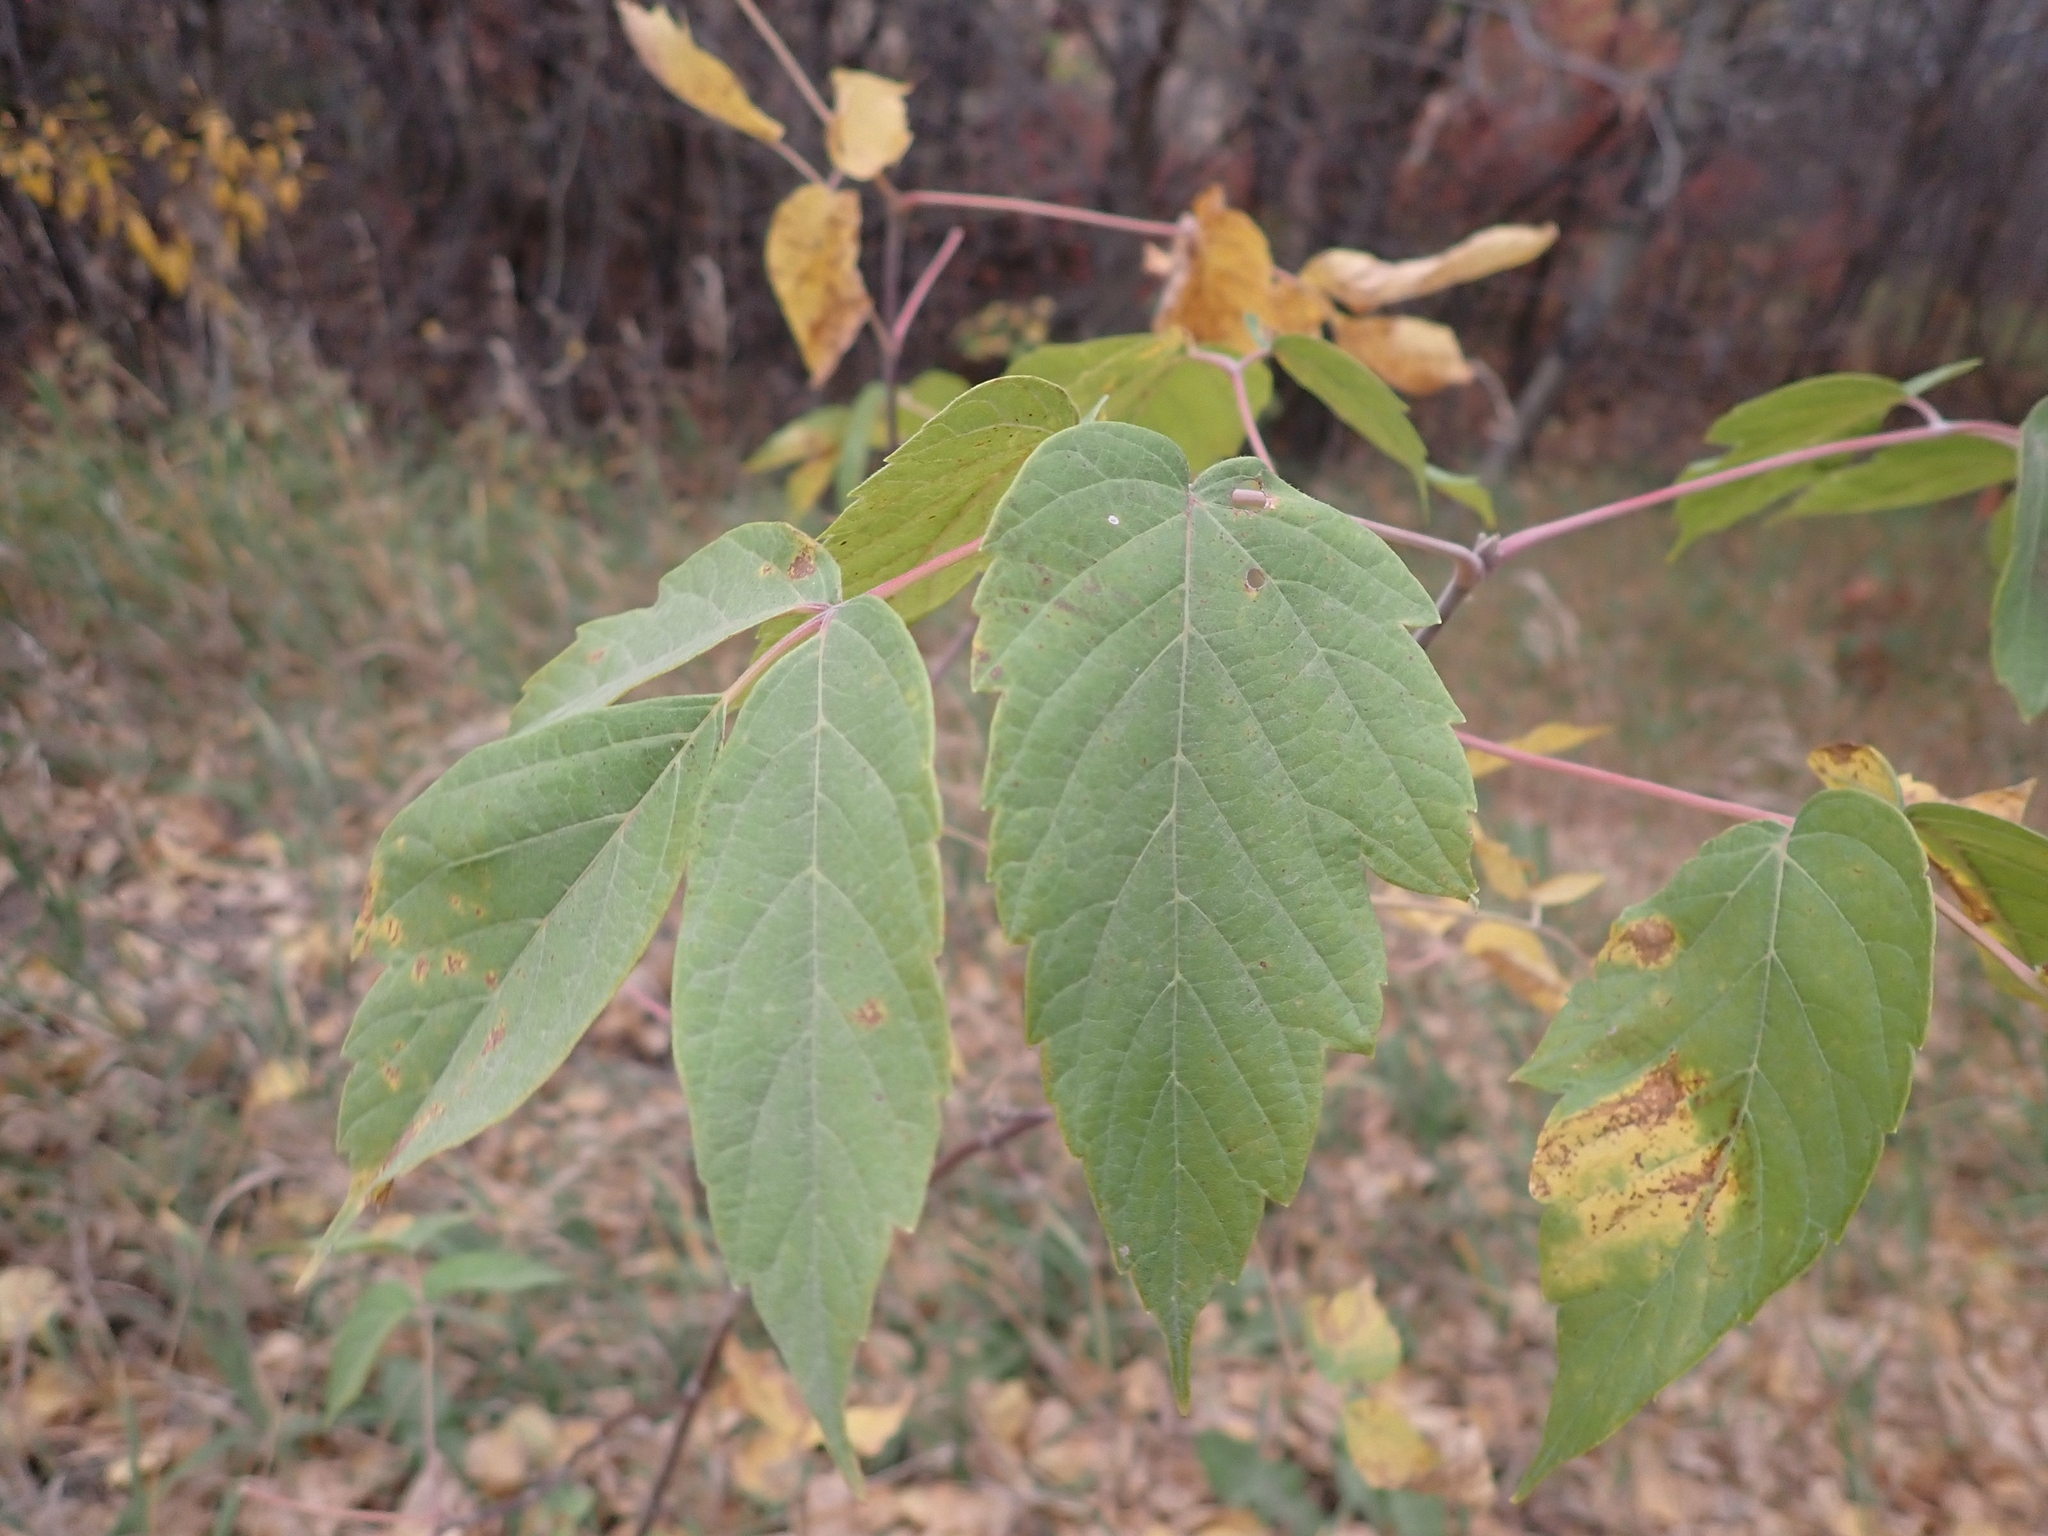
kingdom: Plantae
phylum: Tracheophyta
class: Magnoliopsida
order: Sapindales
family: Sapindaceae
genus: Acer
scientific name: Acer negundo
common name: Ashleaf maple
